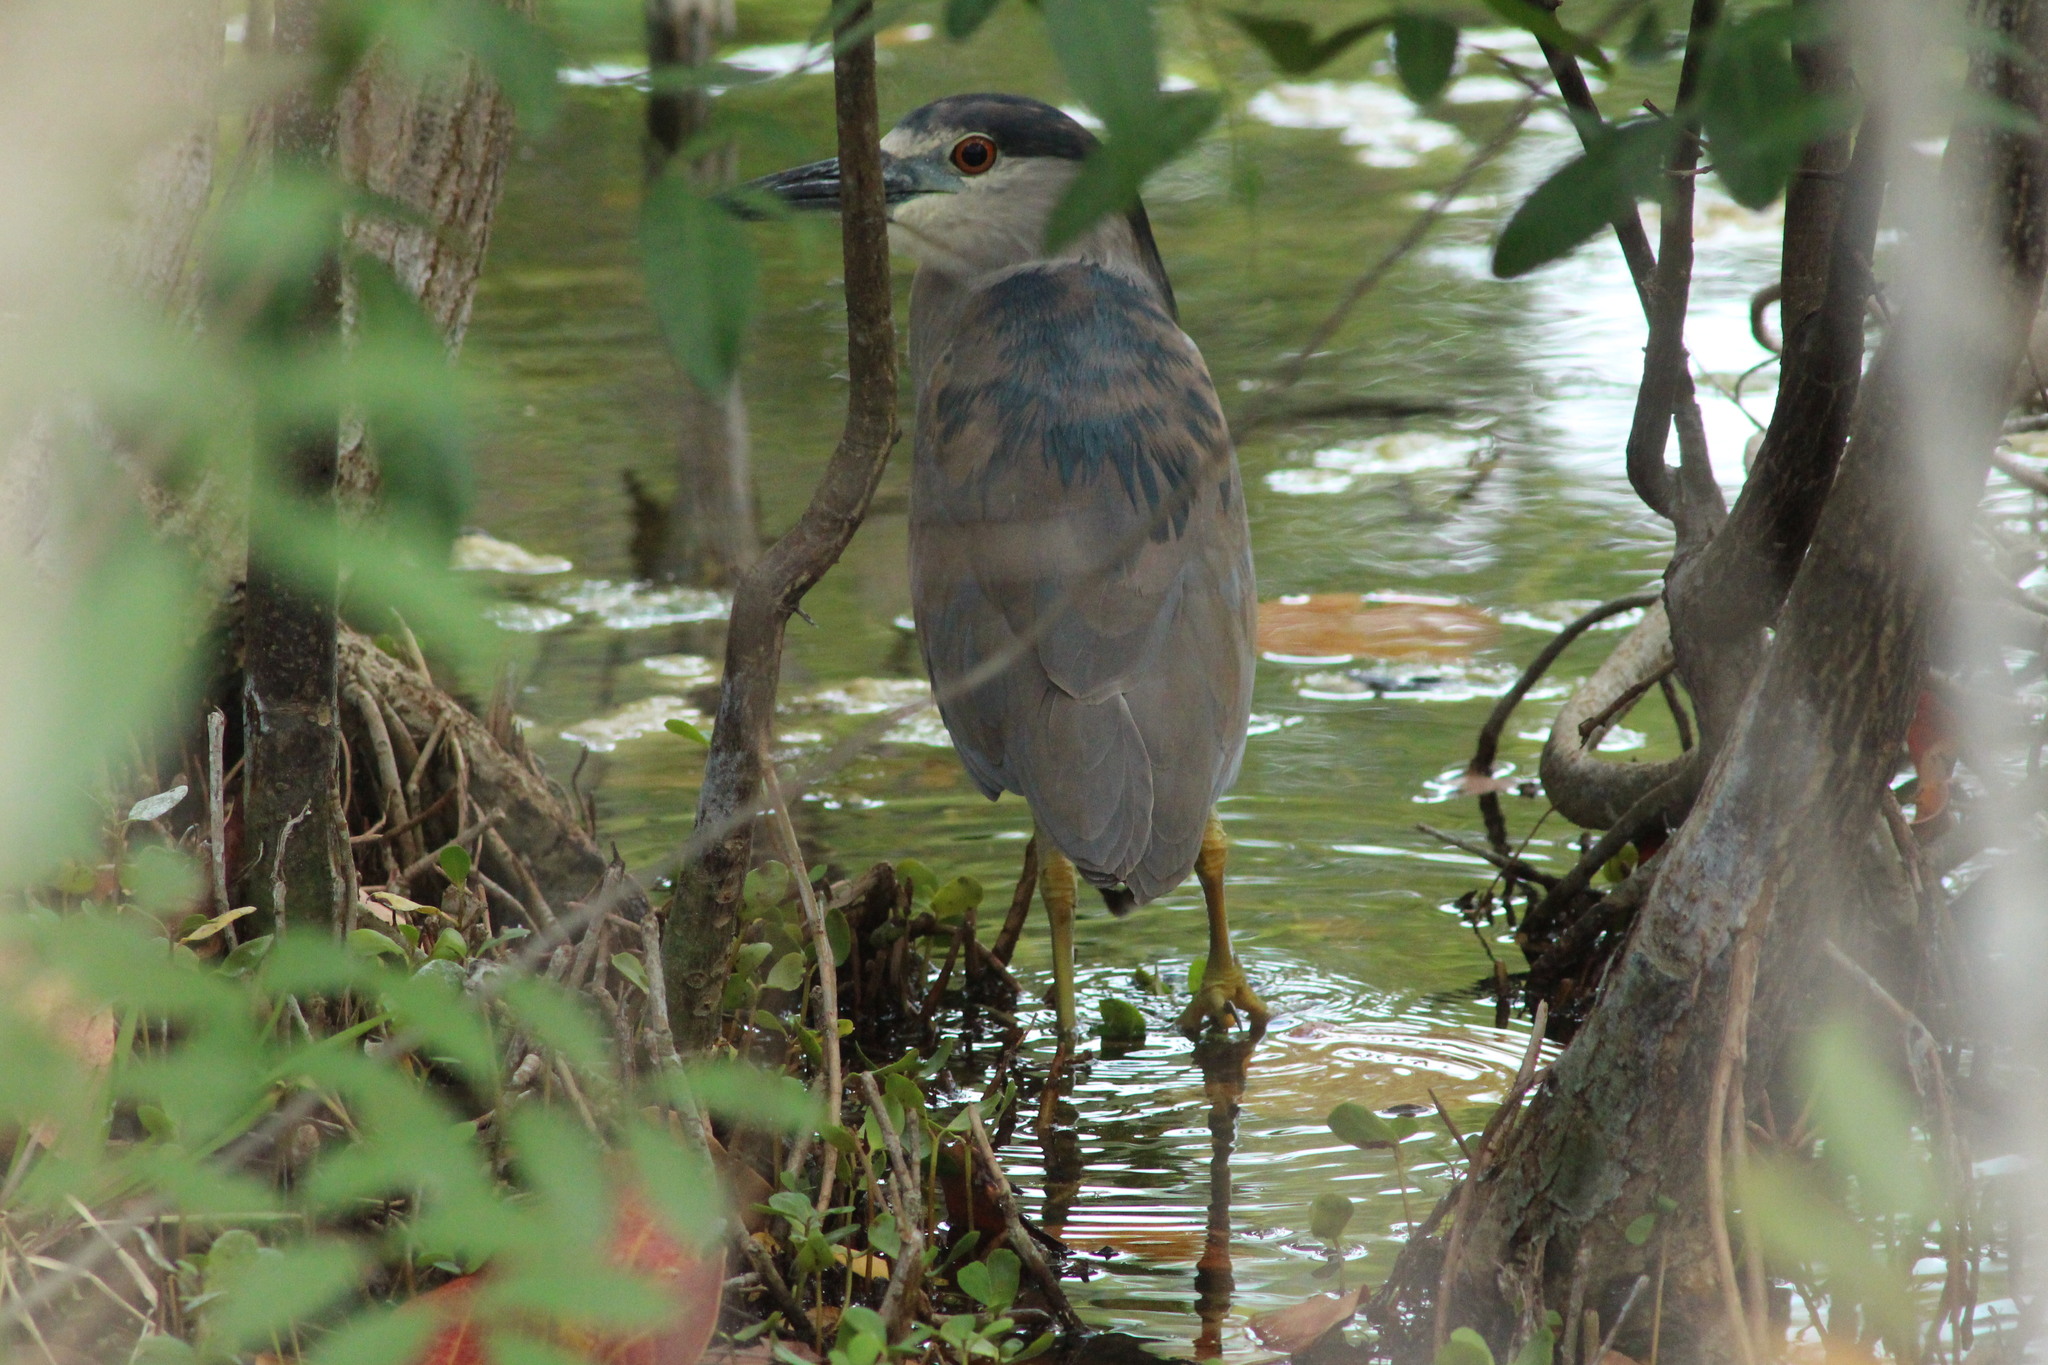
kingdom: Animalia
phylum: Chordata
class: Aves
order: Pelecaniformes
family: Ardeidae
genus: Nycticorax
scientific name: Nycticorax nycticorax
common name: Black-crowned night heron
